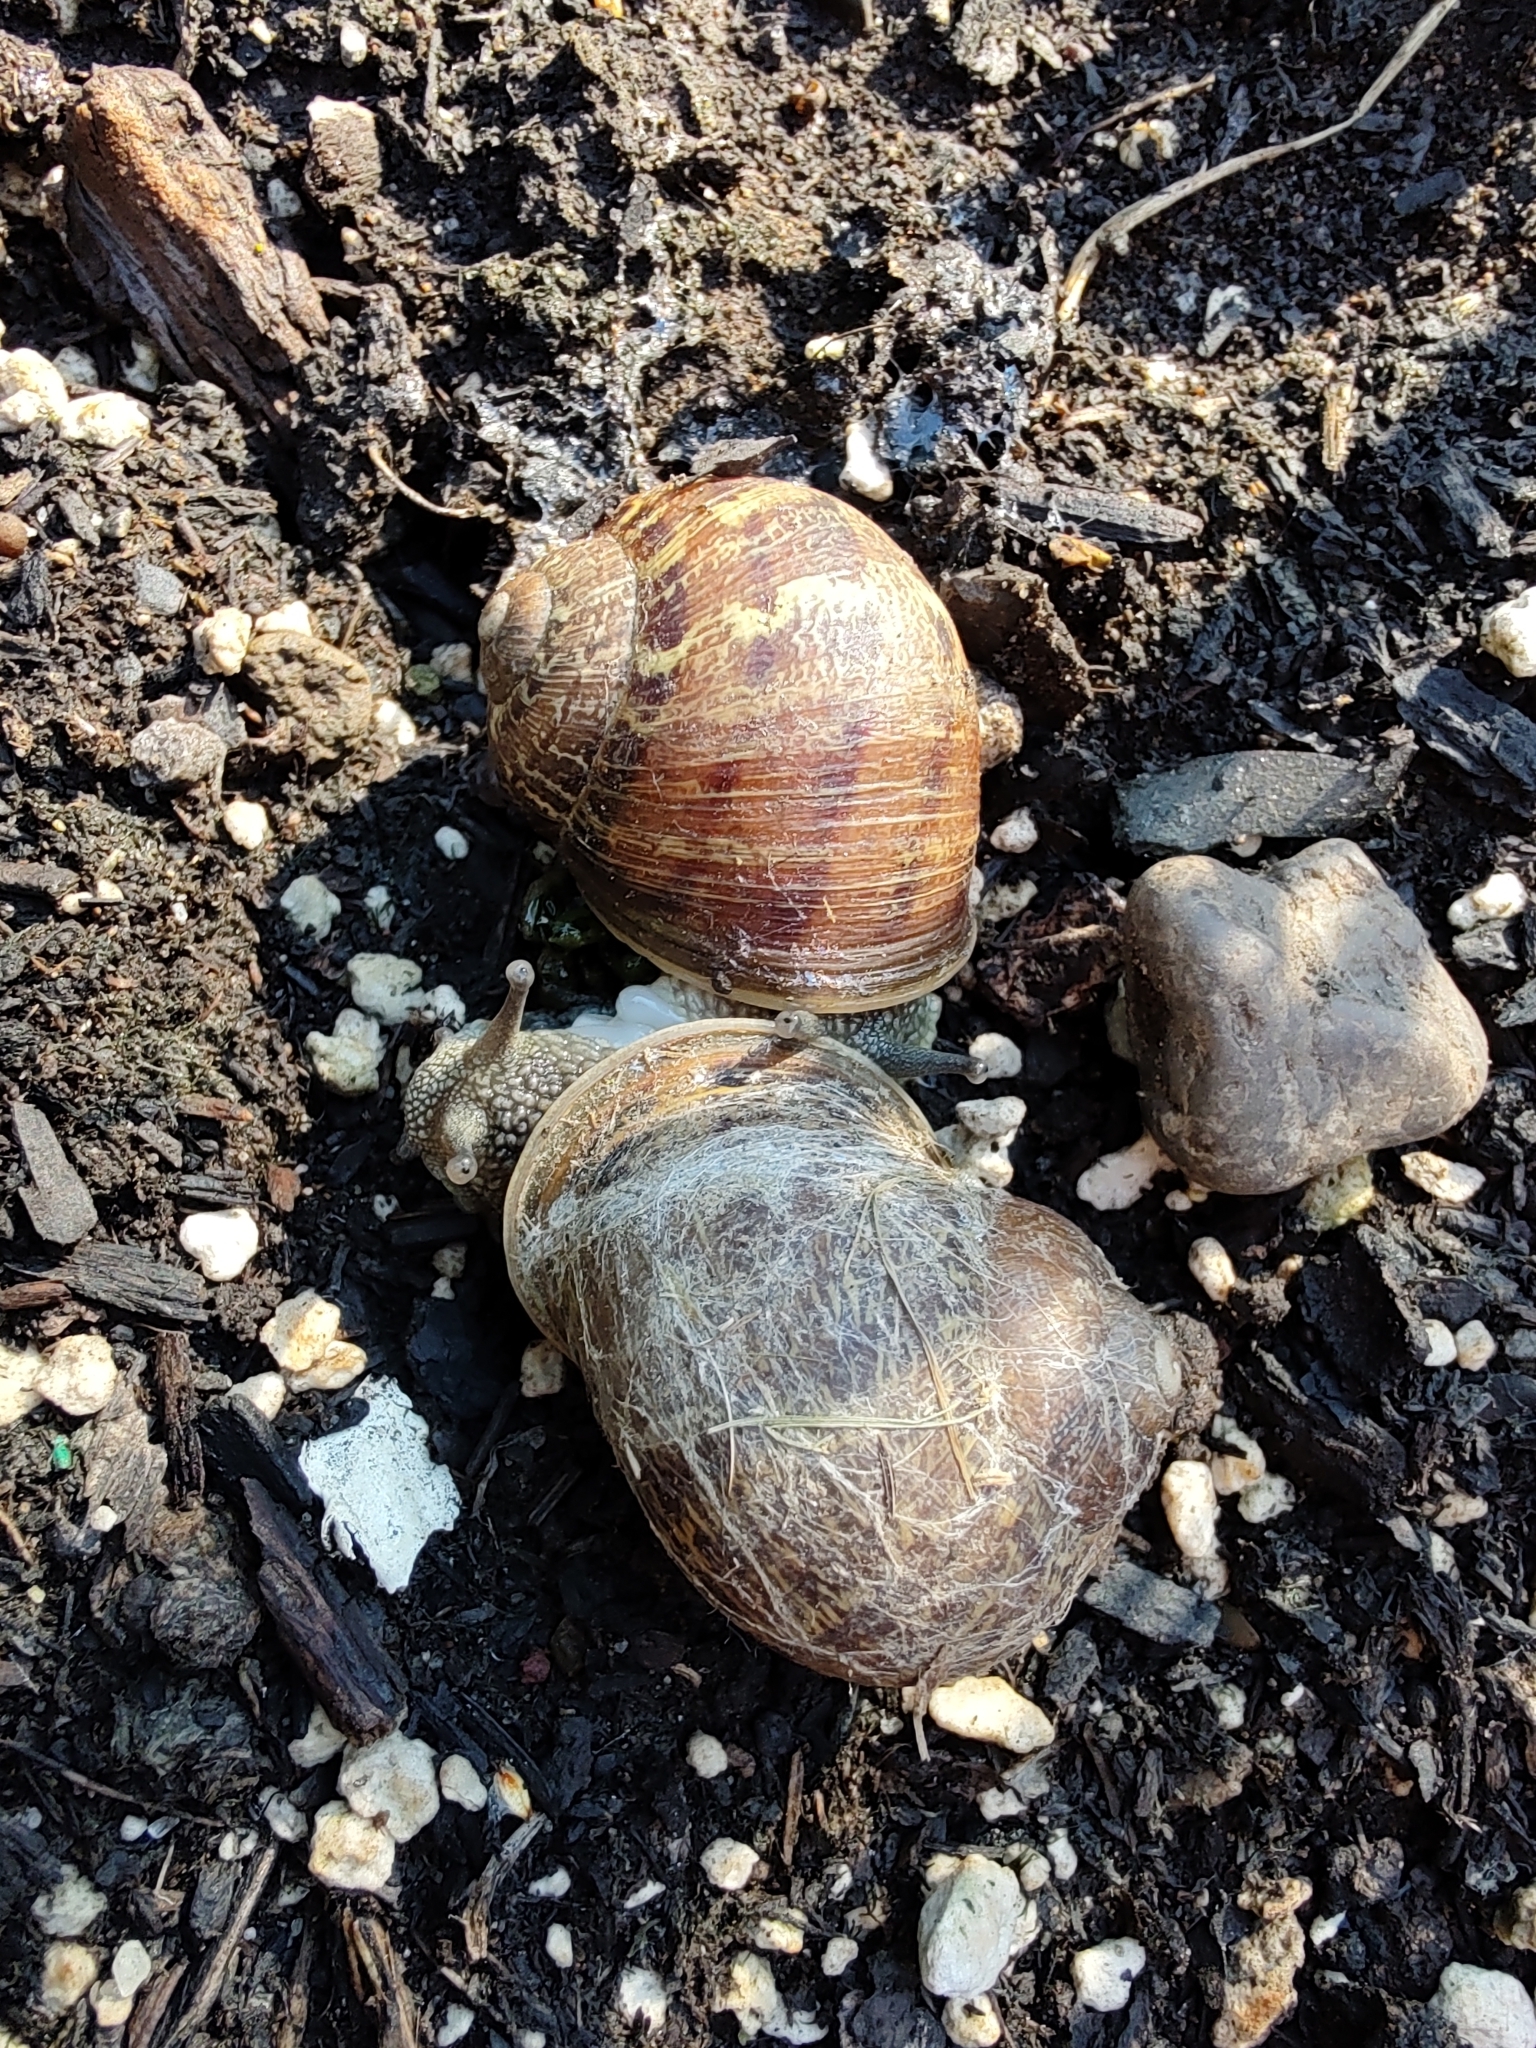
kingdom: Animalia
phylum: Mollusca
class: Gastropoda
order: Stylommatophora
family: Helicidae
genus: Cornu
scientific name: Cornu aspersum
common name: Brown garden snail
